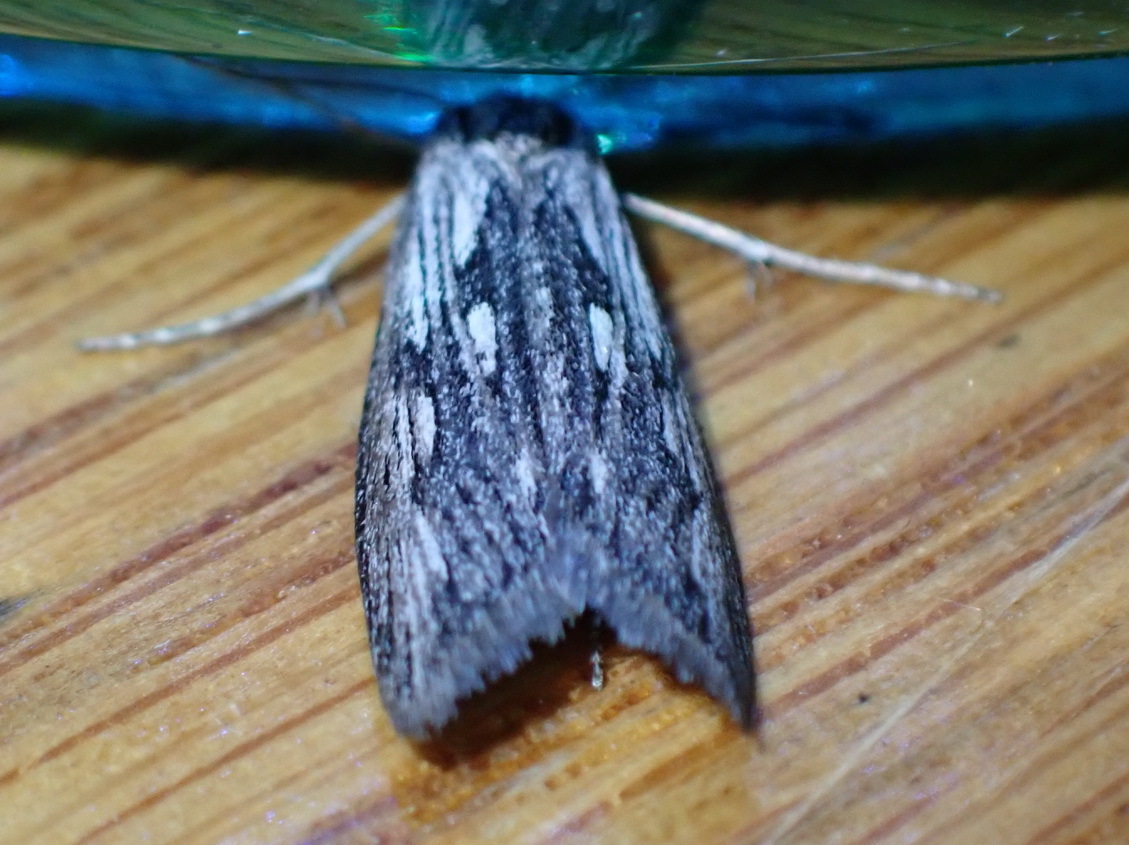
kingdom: Animalia
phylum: Arthropoda
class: Insecta
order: Lepidoptera
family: Psychidae
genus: Criocharacta
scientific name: Criocharacta amphiactis
